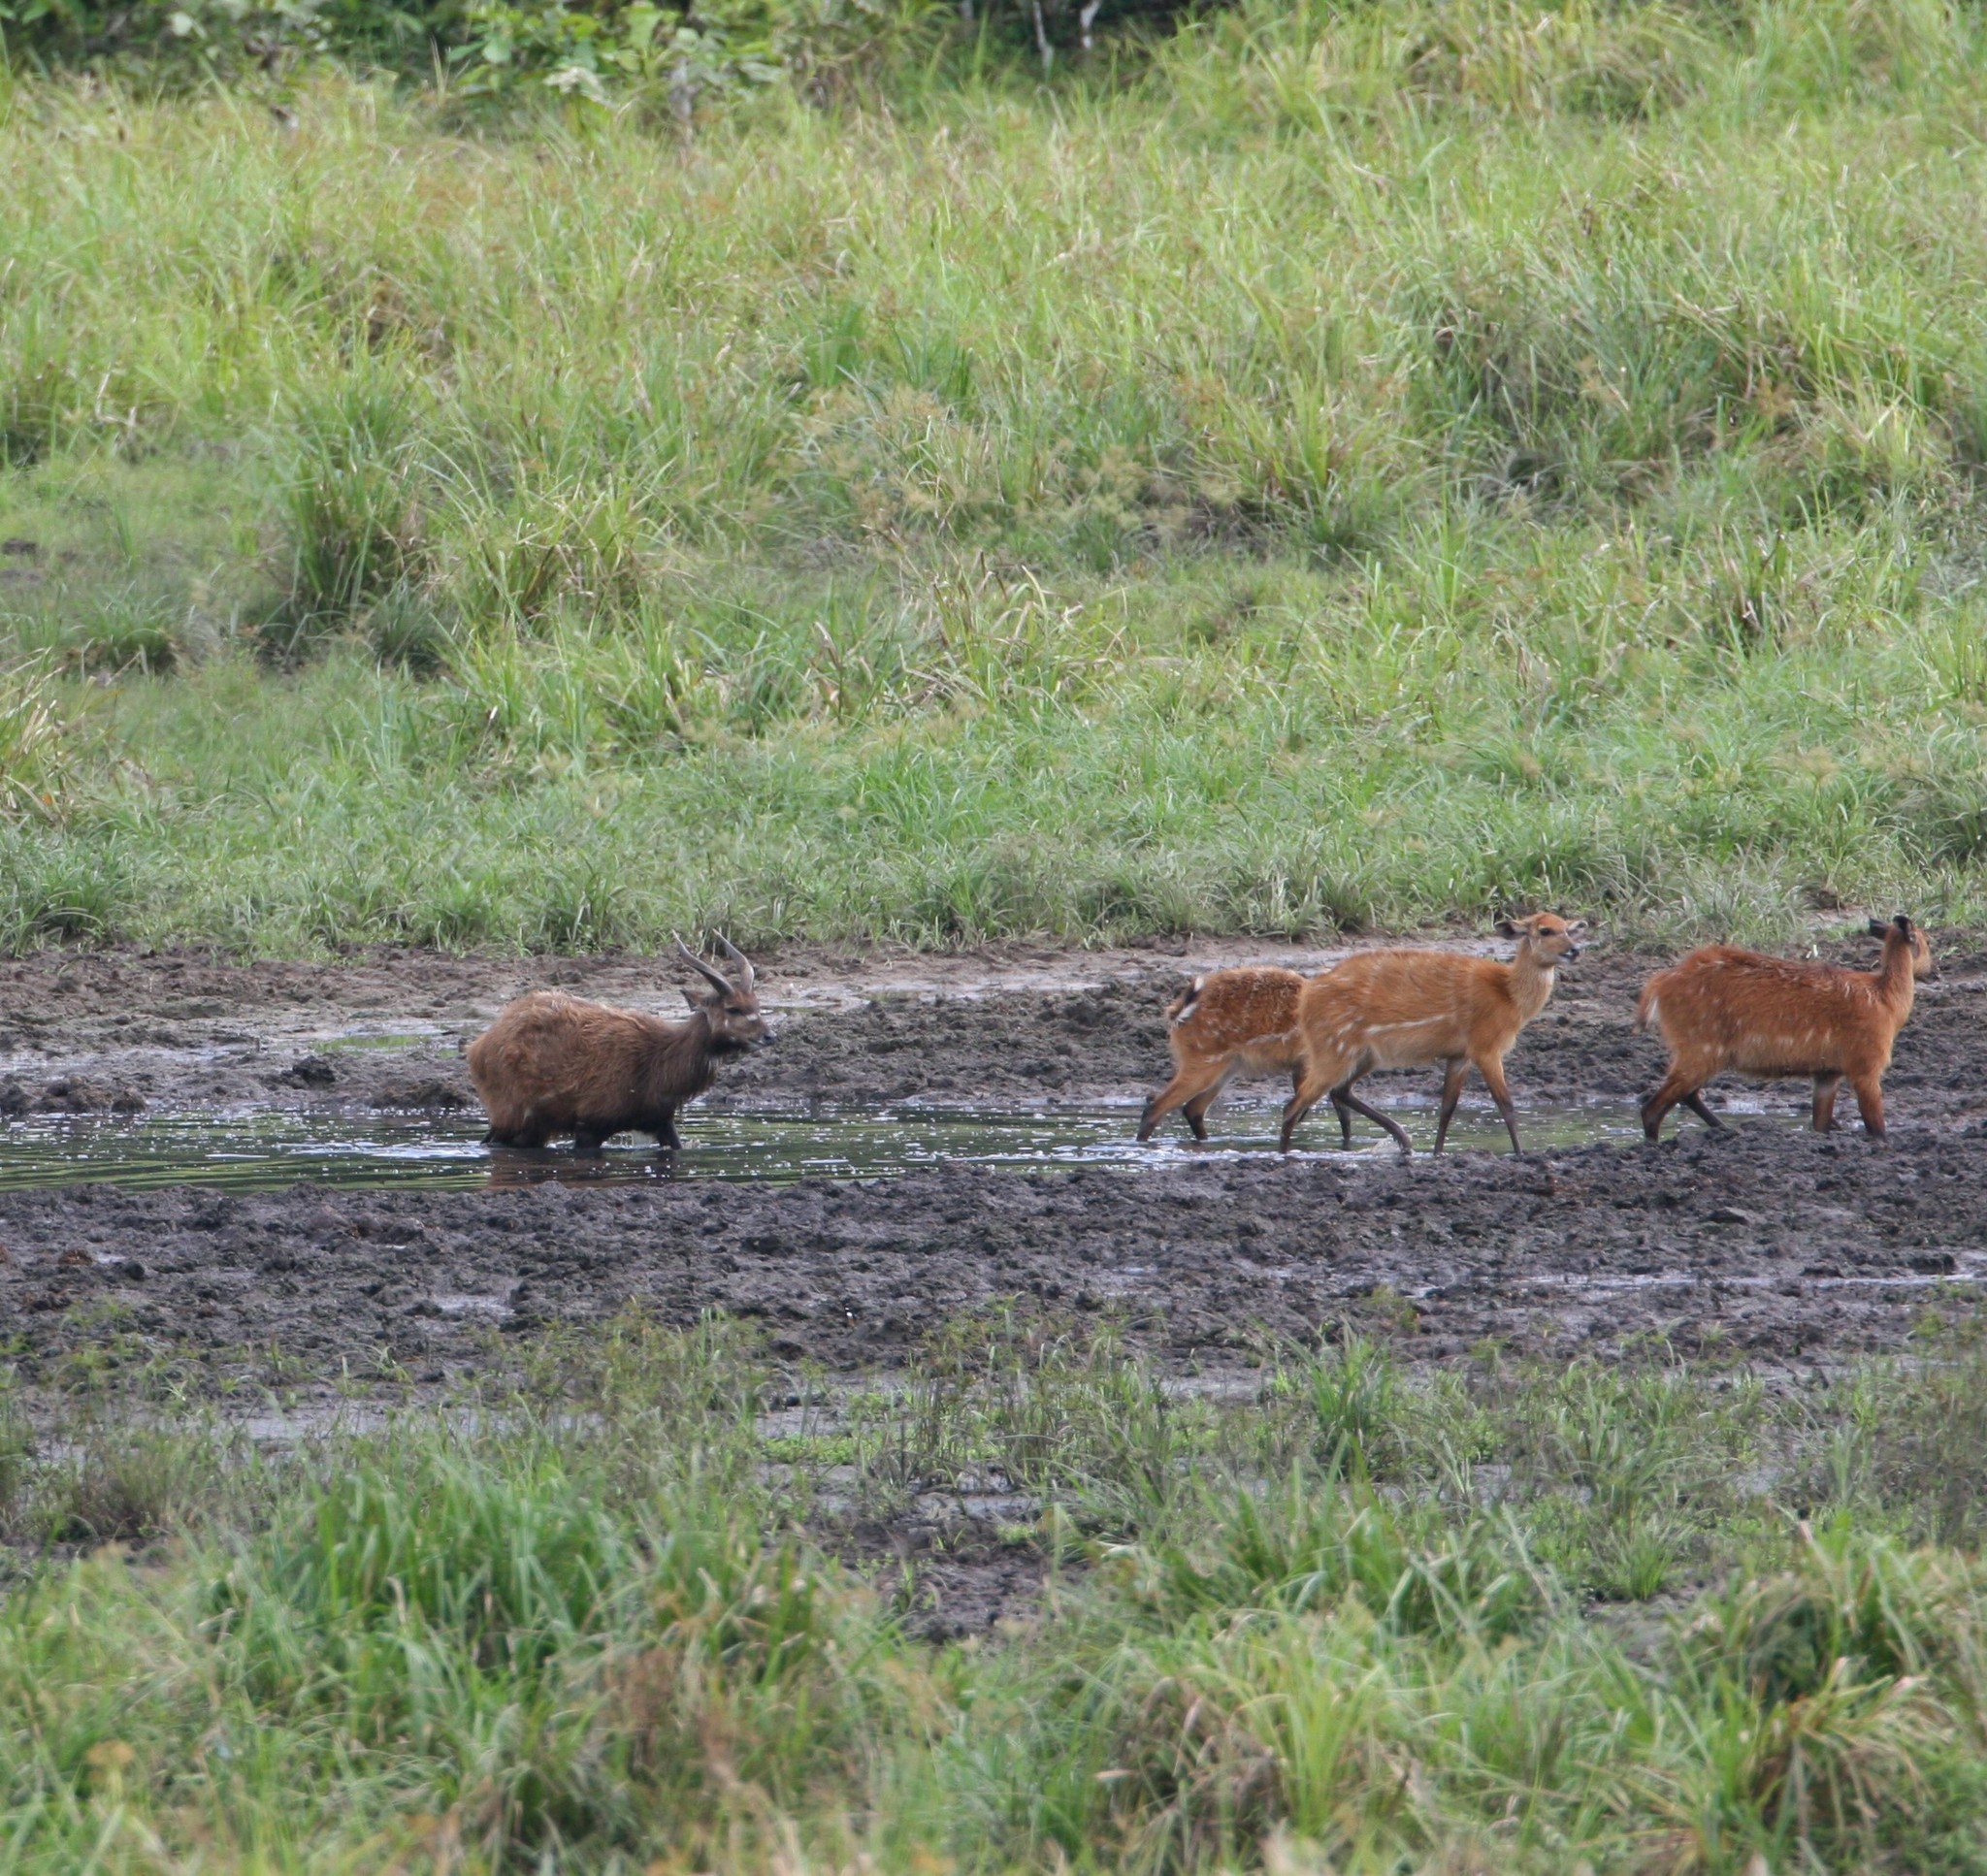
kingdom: Animalia
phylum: Chordata
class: Mammalia
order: Artiodactyla
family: Bovidae
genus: Tragelaphus
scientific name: Tragelaphus spekii
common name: Sitatunga
